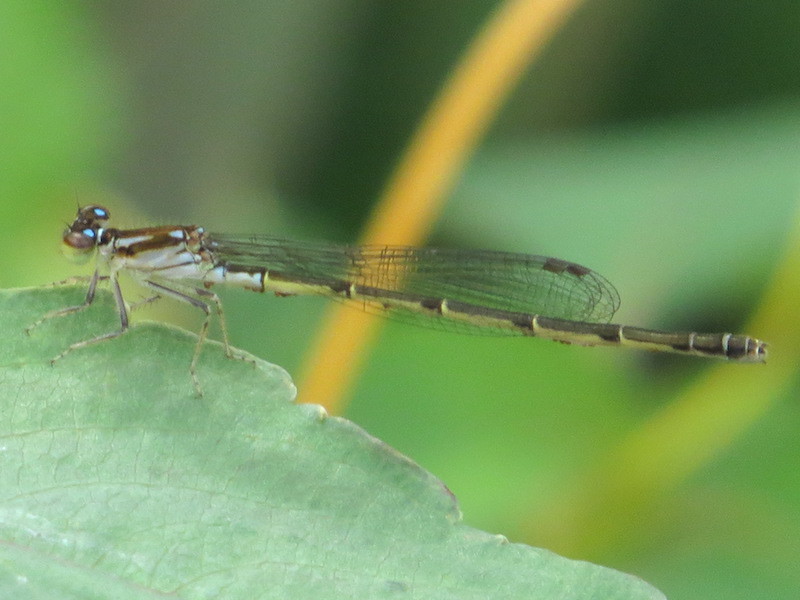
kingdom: Animalia
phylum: Arthropoda
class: Insecta
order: Odonata
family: Coenagrionidae
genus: Ischnura
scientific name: Ischnura posita
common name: Fragile forktail
